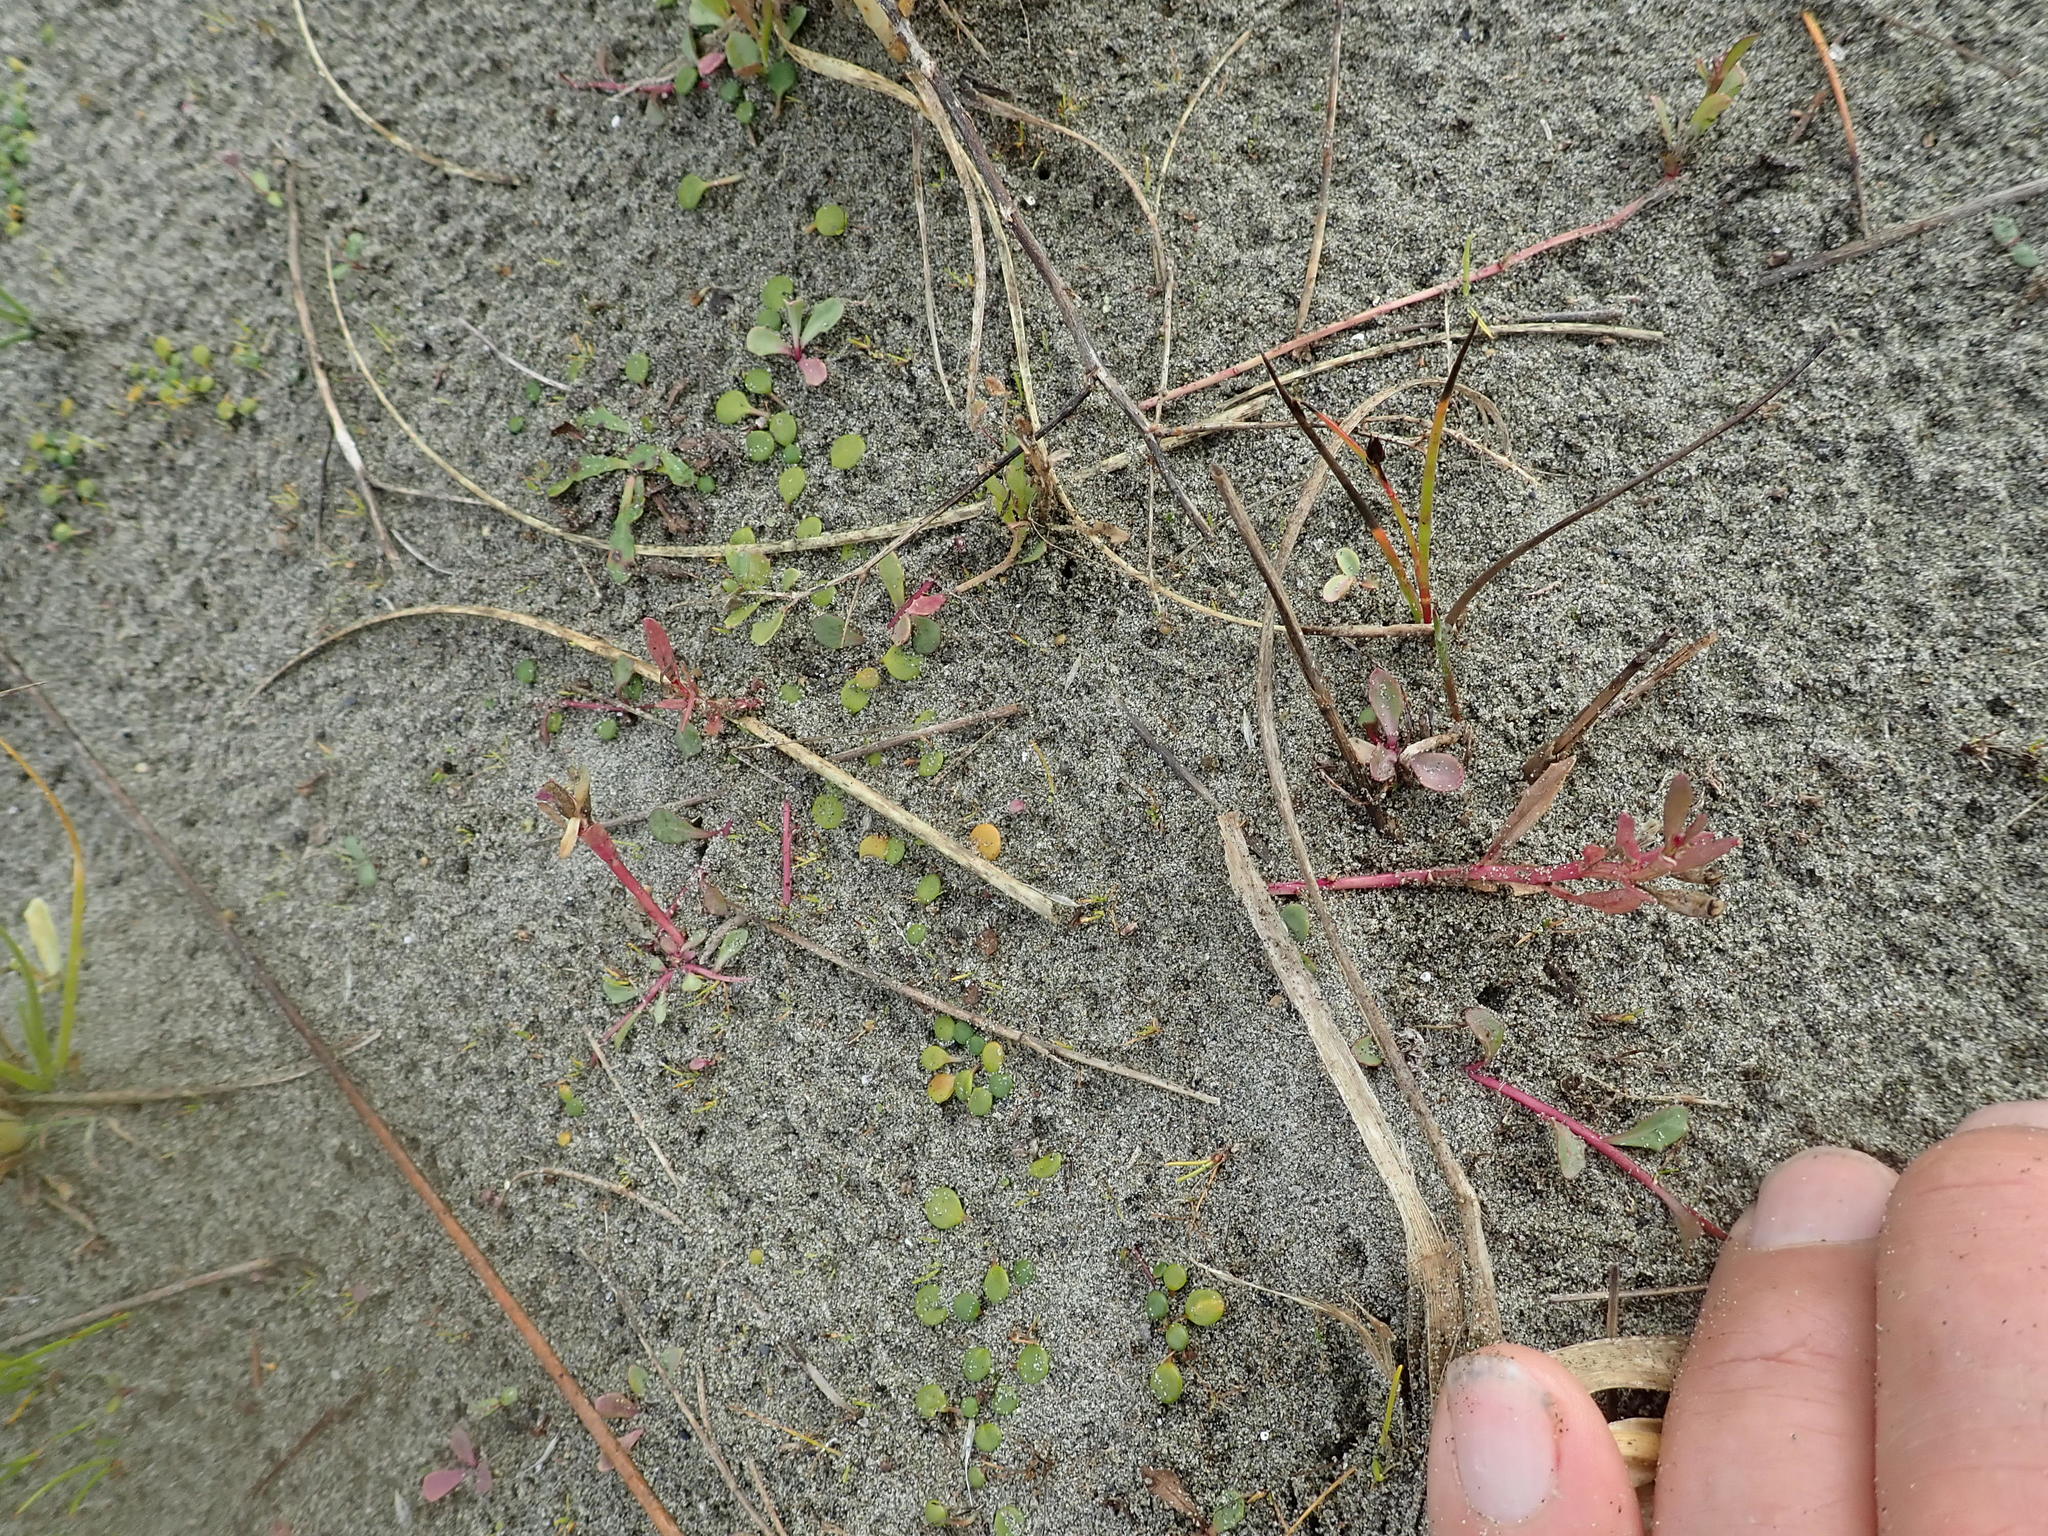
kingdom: Plantae
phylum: Tracheophyta
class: Magnoliopsida
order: Asterales
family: Campanulaceae
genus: Lobelia
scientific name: Lobelia anceps
